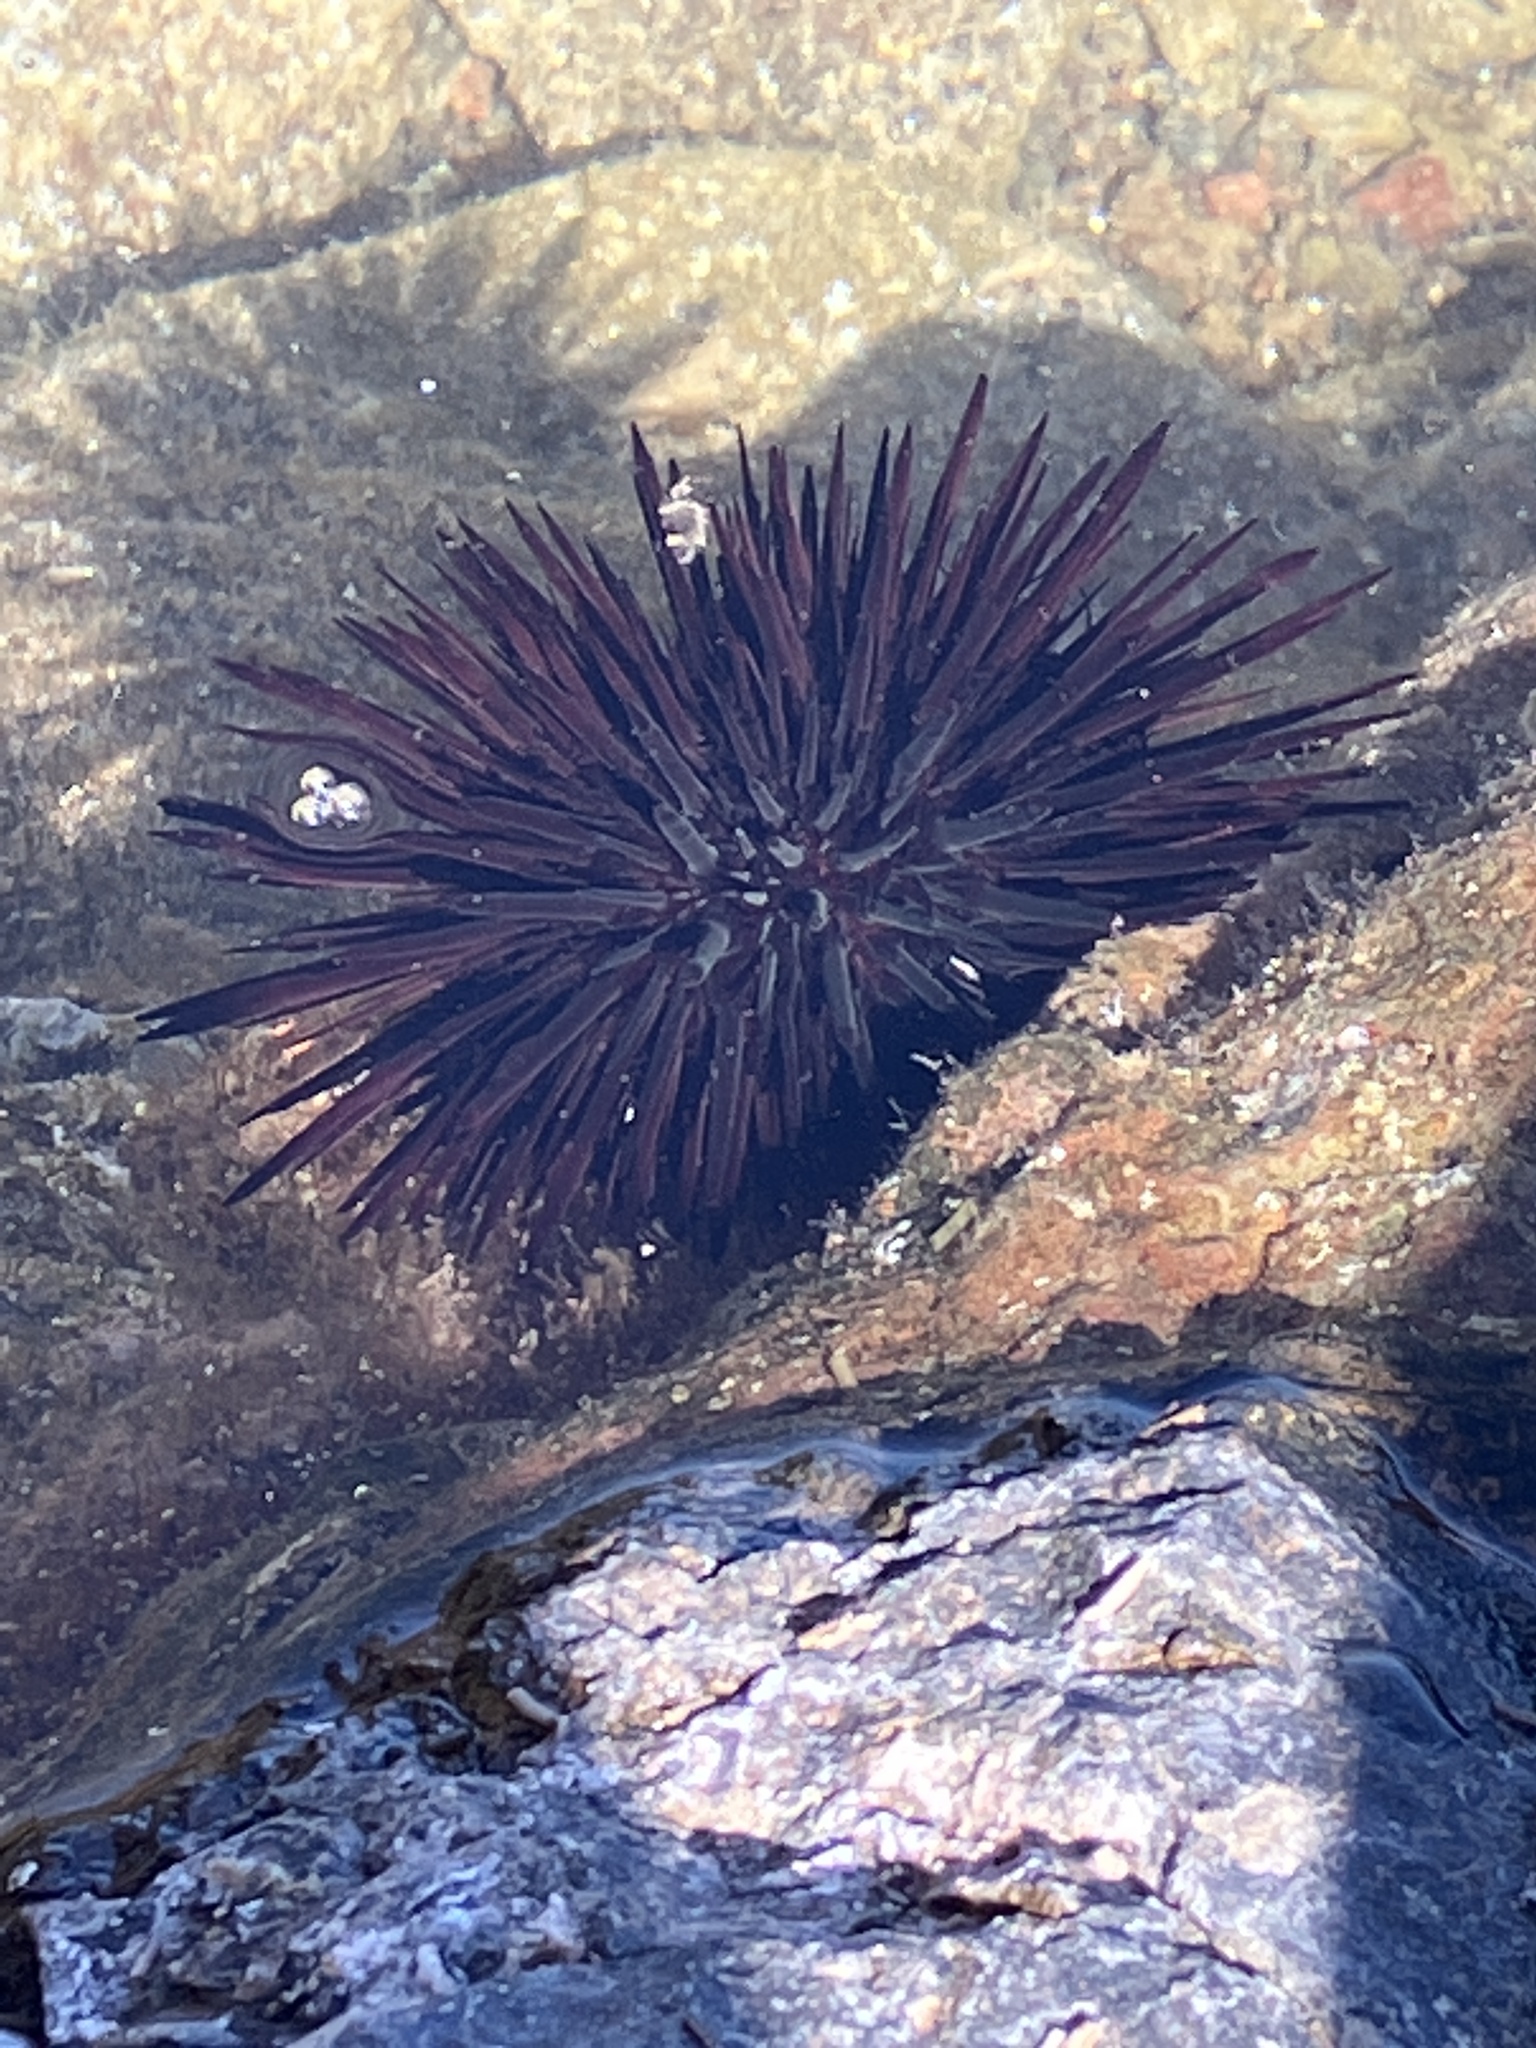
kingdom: Animalia
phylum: Echinodermata
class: Echinoidea
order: Camarodonta
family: Echinometridae
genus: Echinometra
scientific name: Echinometra lucunter
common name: Rock urchin
